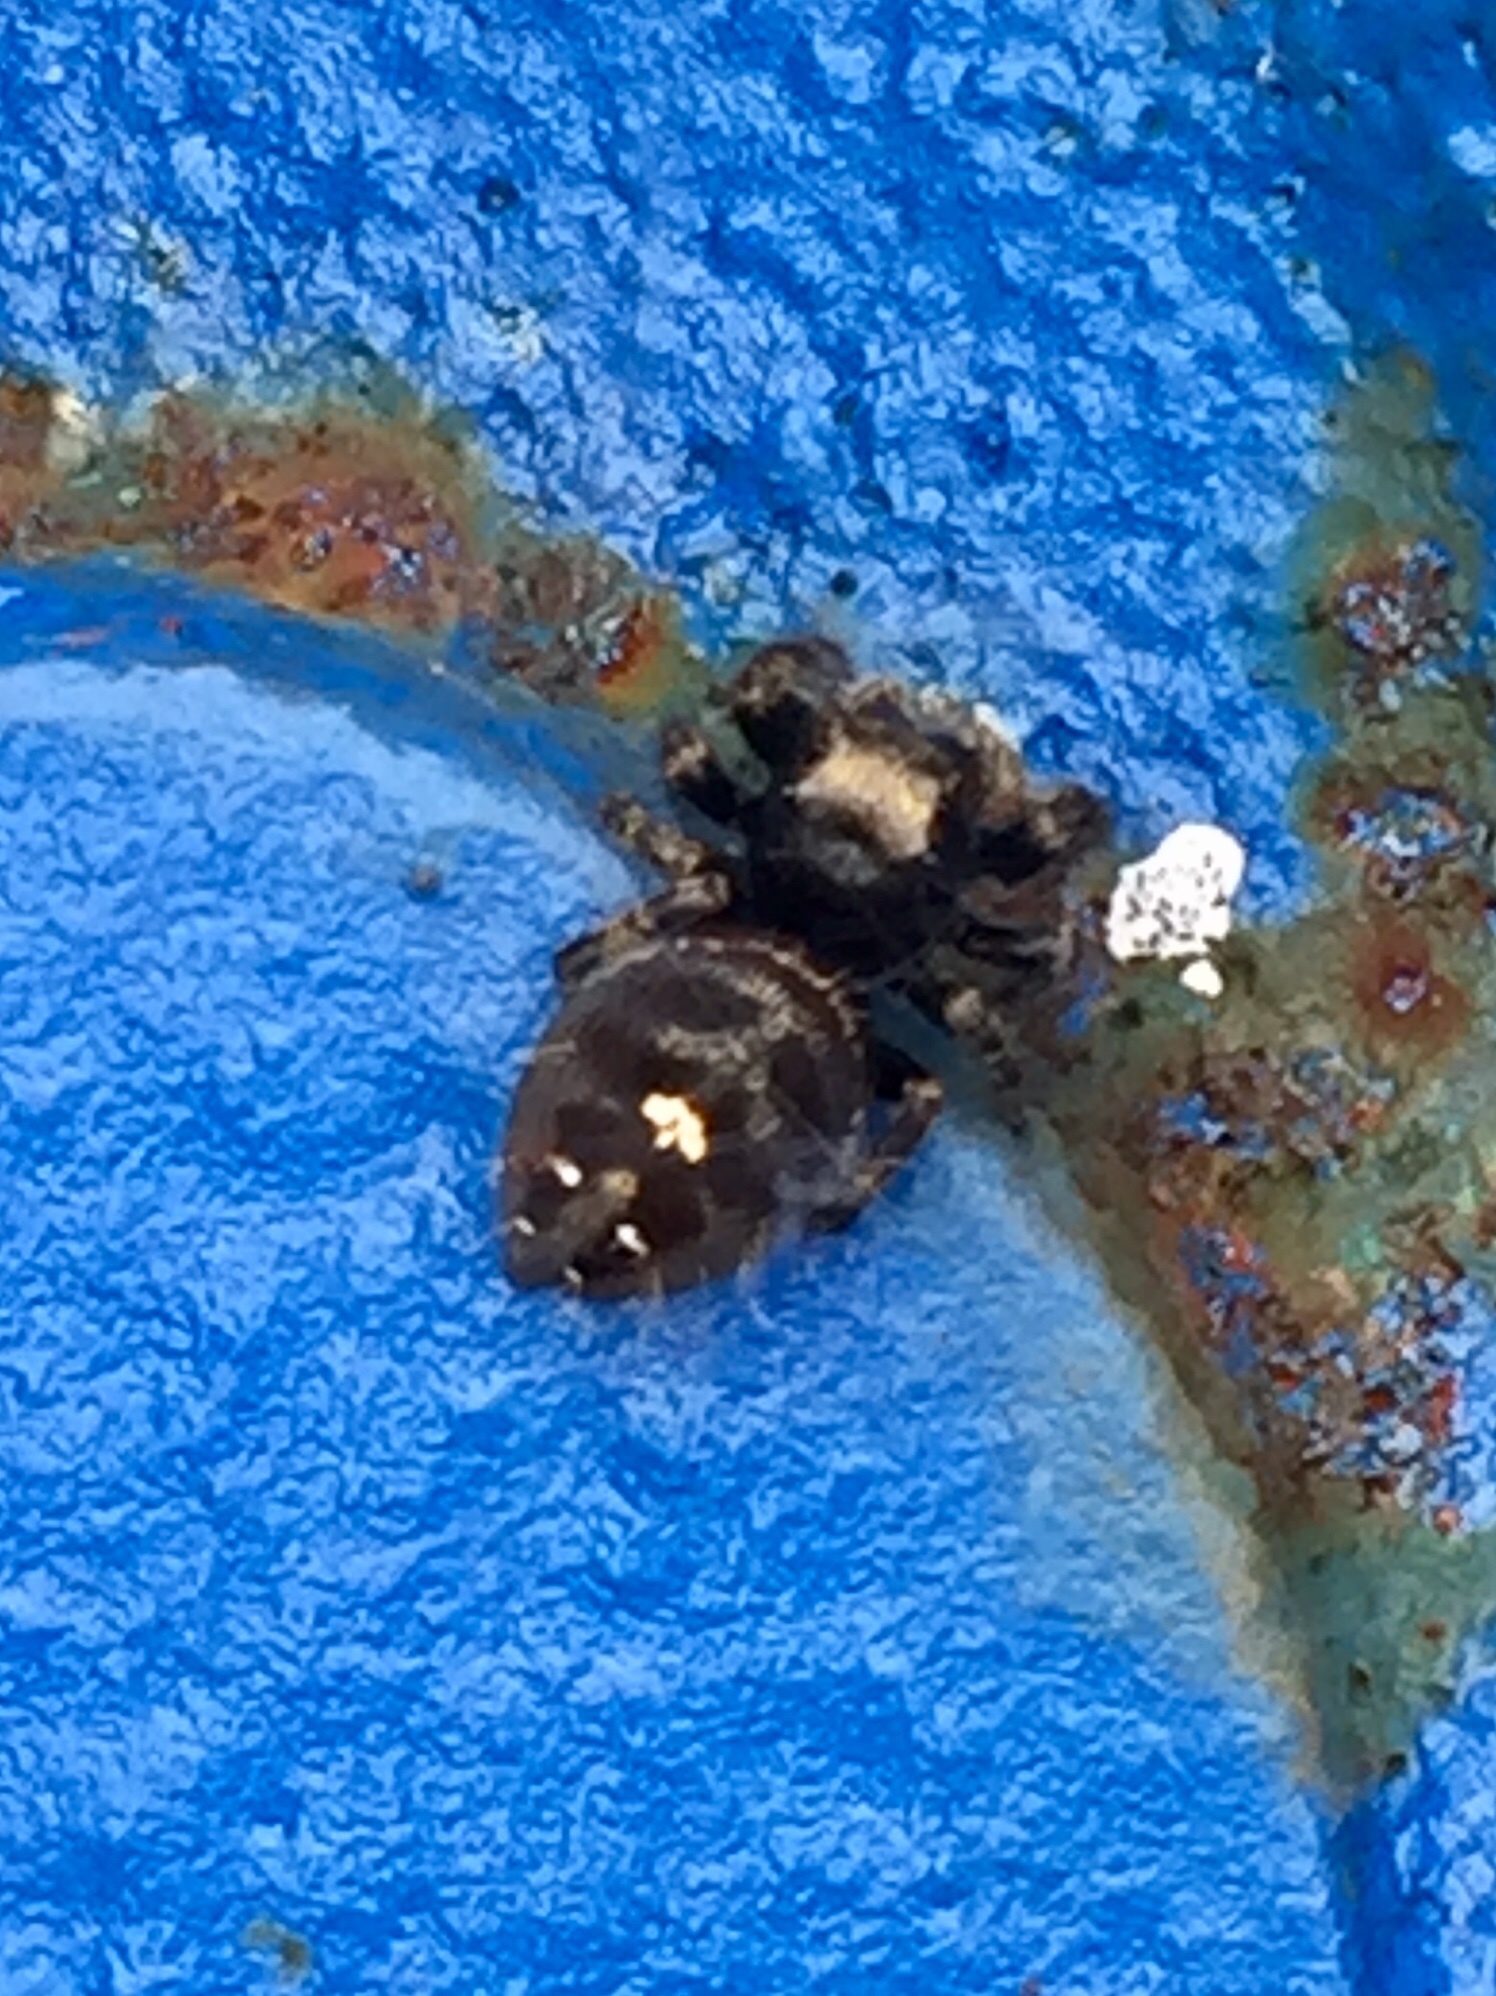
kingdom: Animalia
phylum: Arthropoda
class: Arachnida
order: Araneae
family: Salticidae
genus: Phidippus
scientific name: Phidippus audax
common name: Bold jumper
